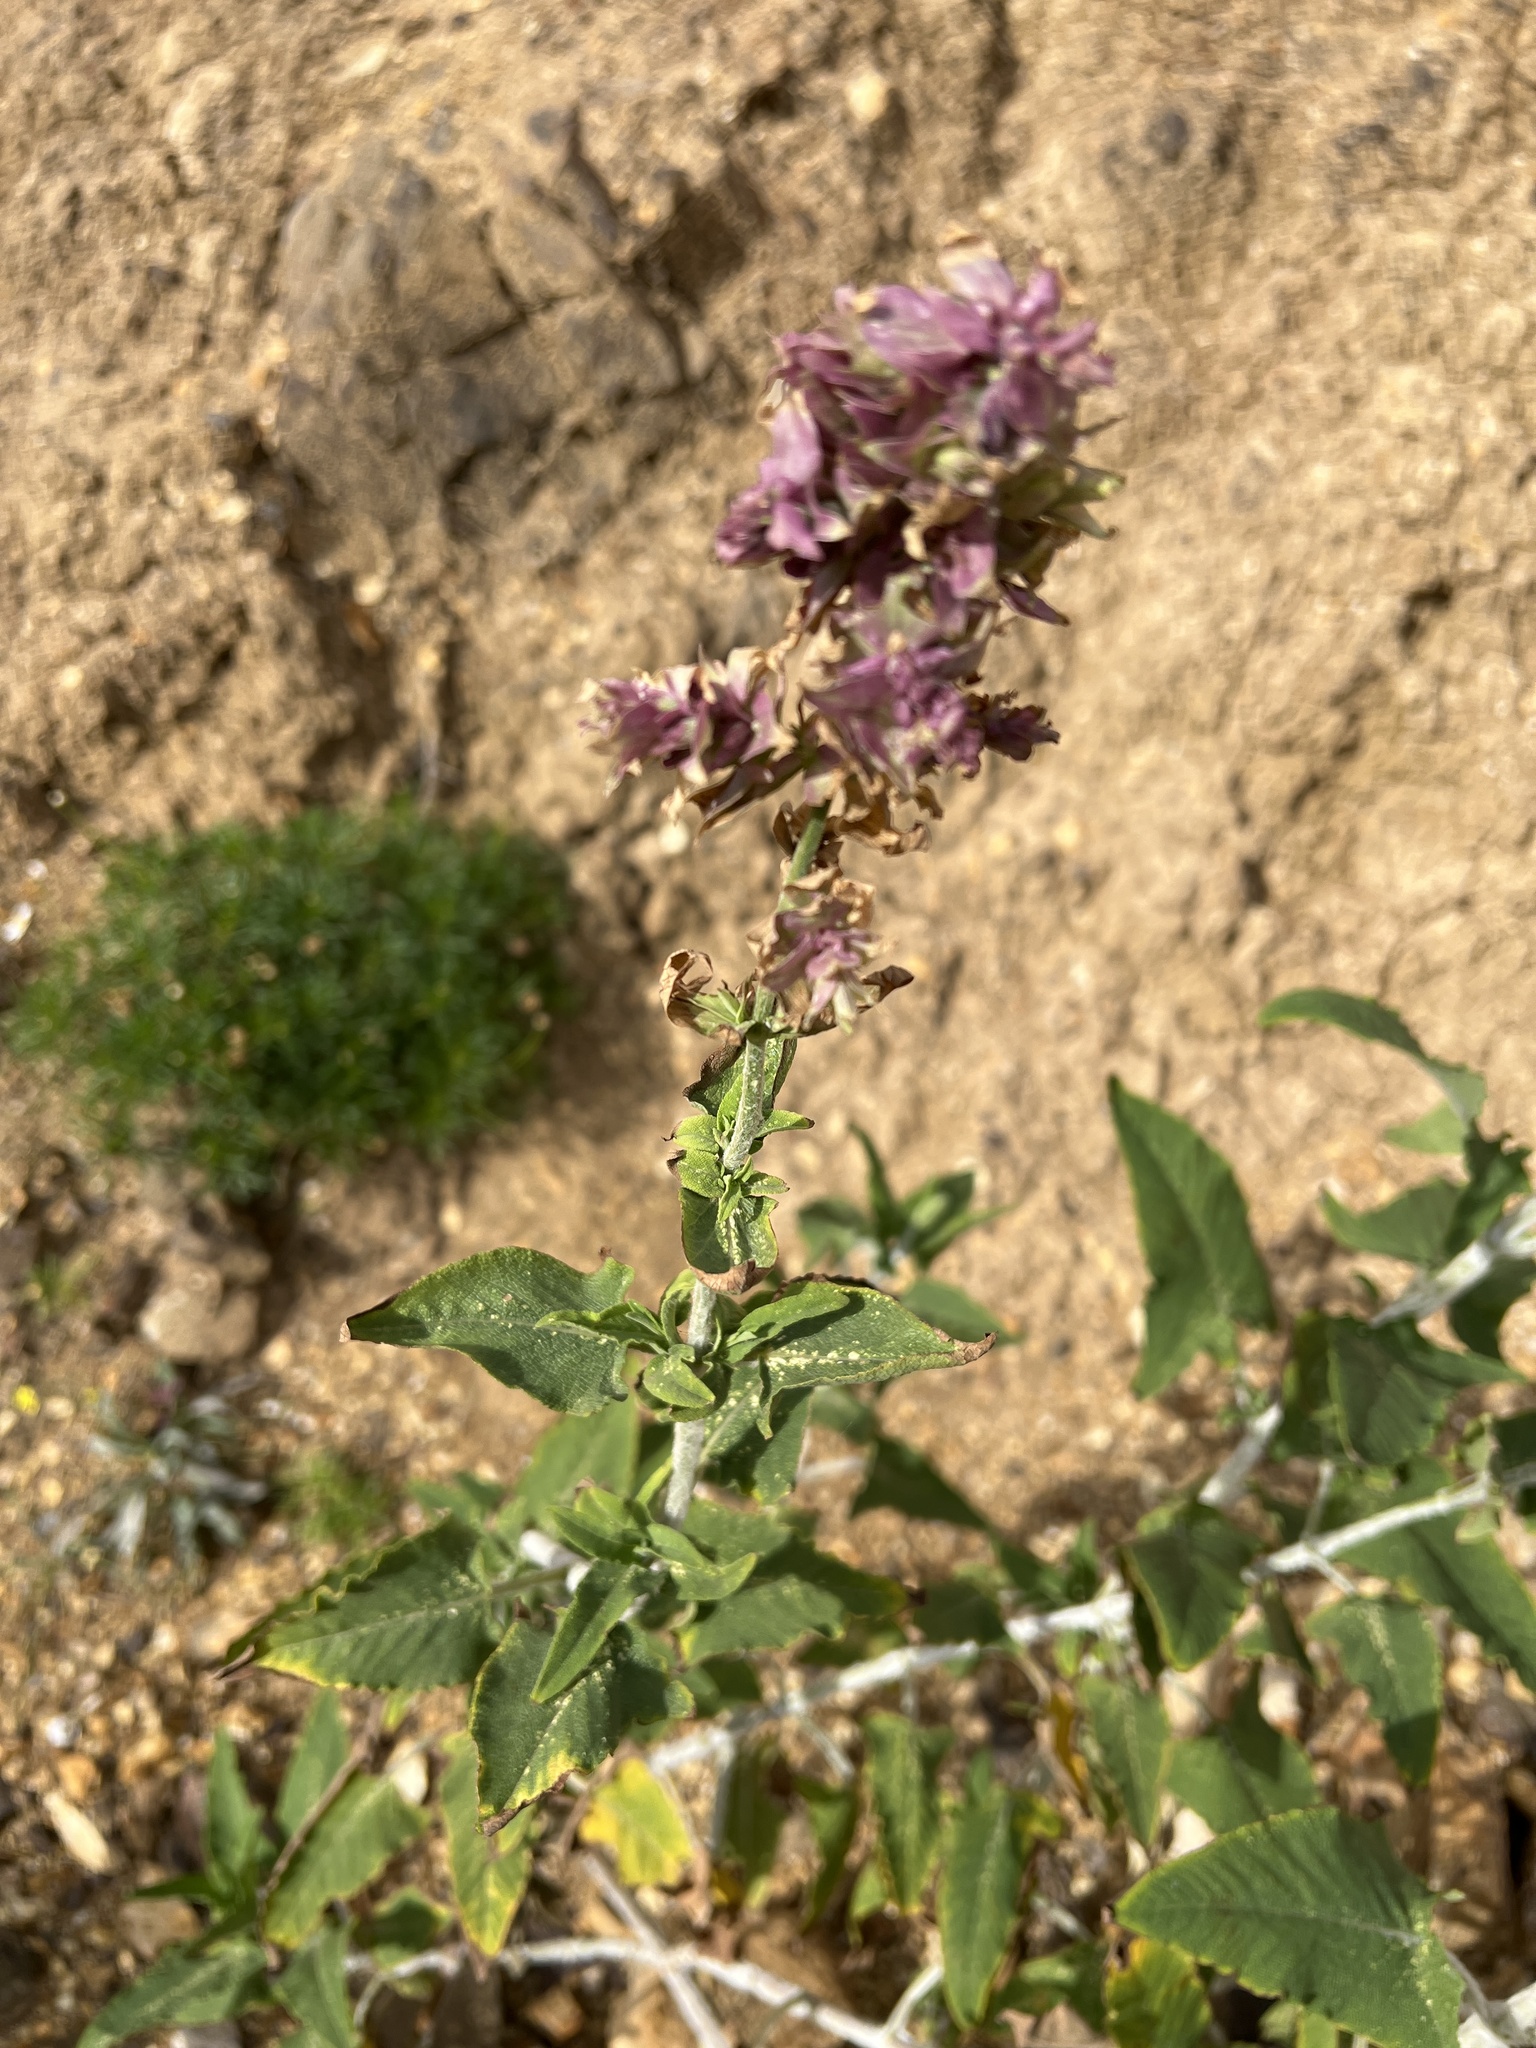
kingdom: Plantae
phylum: Tracheophyta
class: Magnoliopsida
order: Lamiales
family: Lamiaceae
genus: Salvia
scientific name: Salvia canariensis
